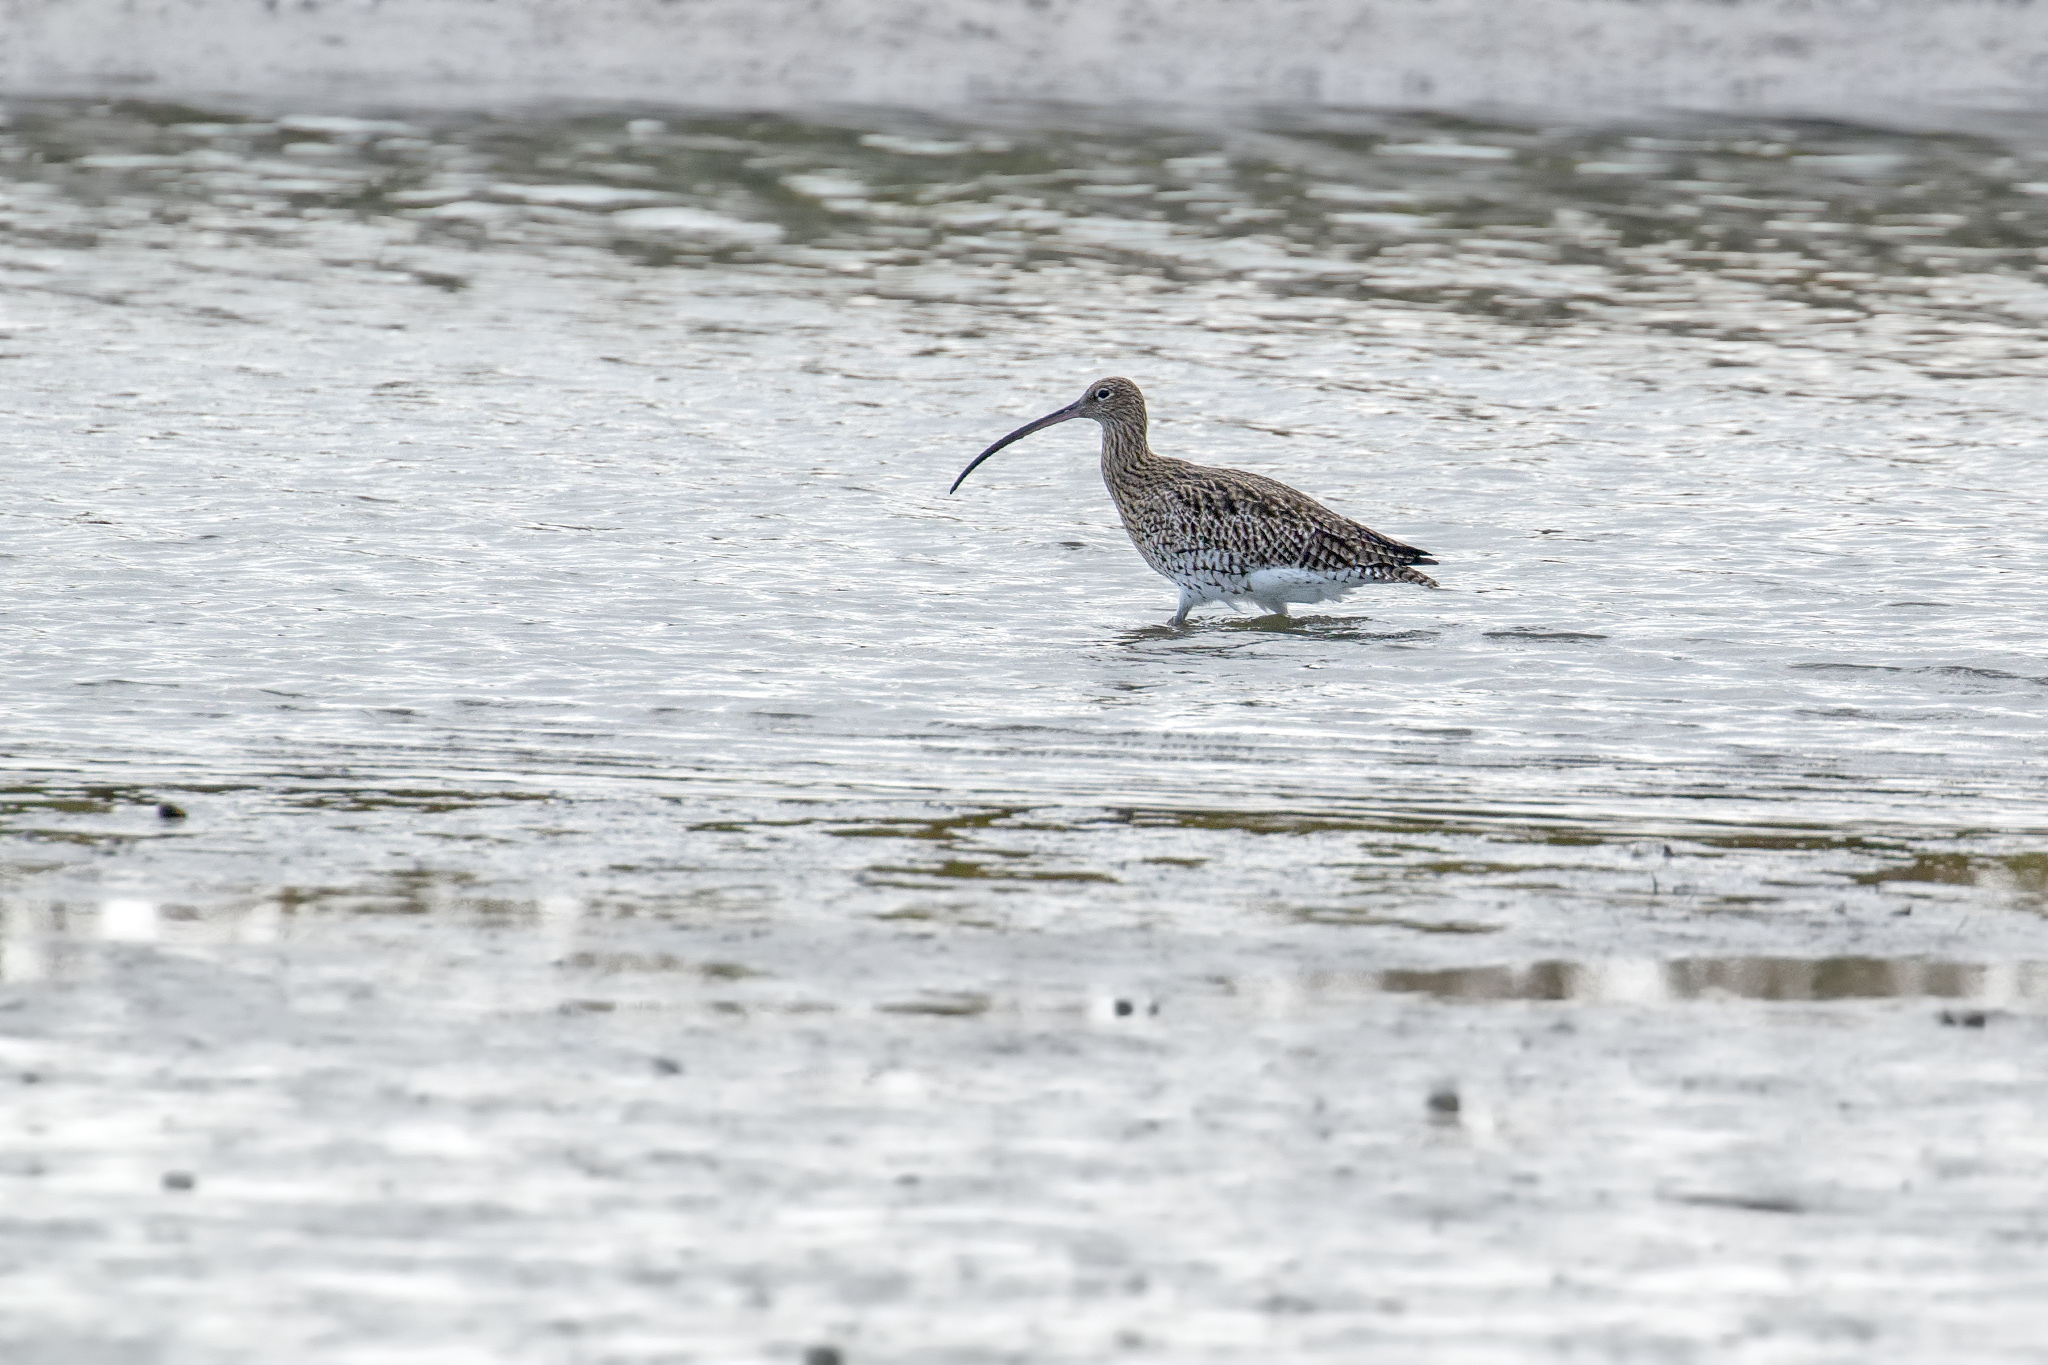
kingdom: Animalia
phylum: Chordata
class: Aves
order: Charadriiformes
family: Scolopacidae
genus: Numenius
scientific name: Numenius arquata
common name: Eurasian curlew
